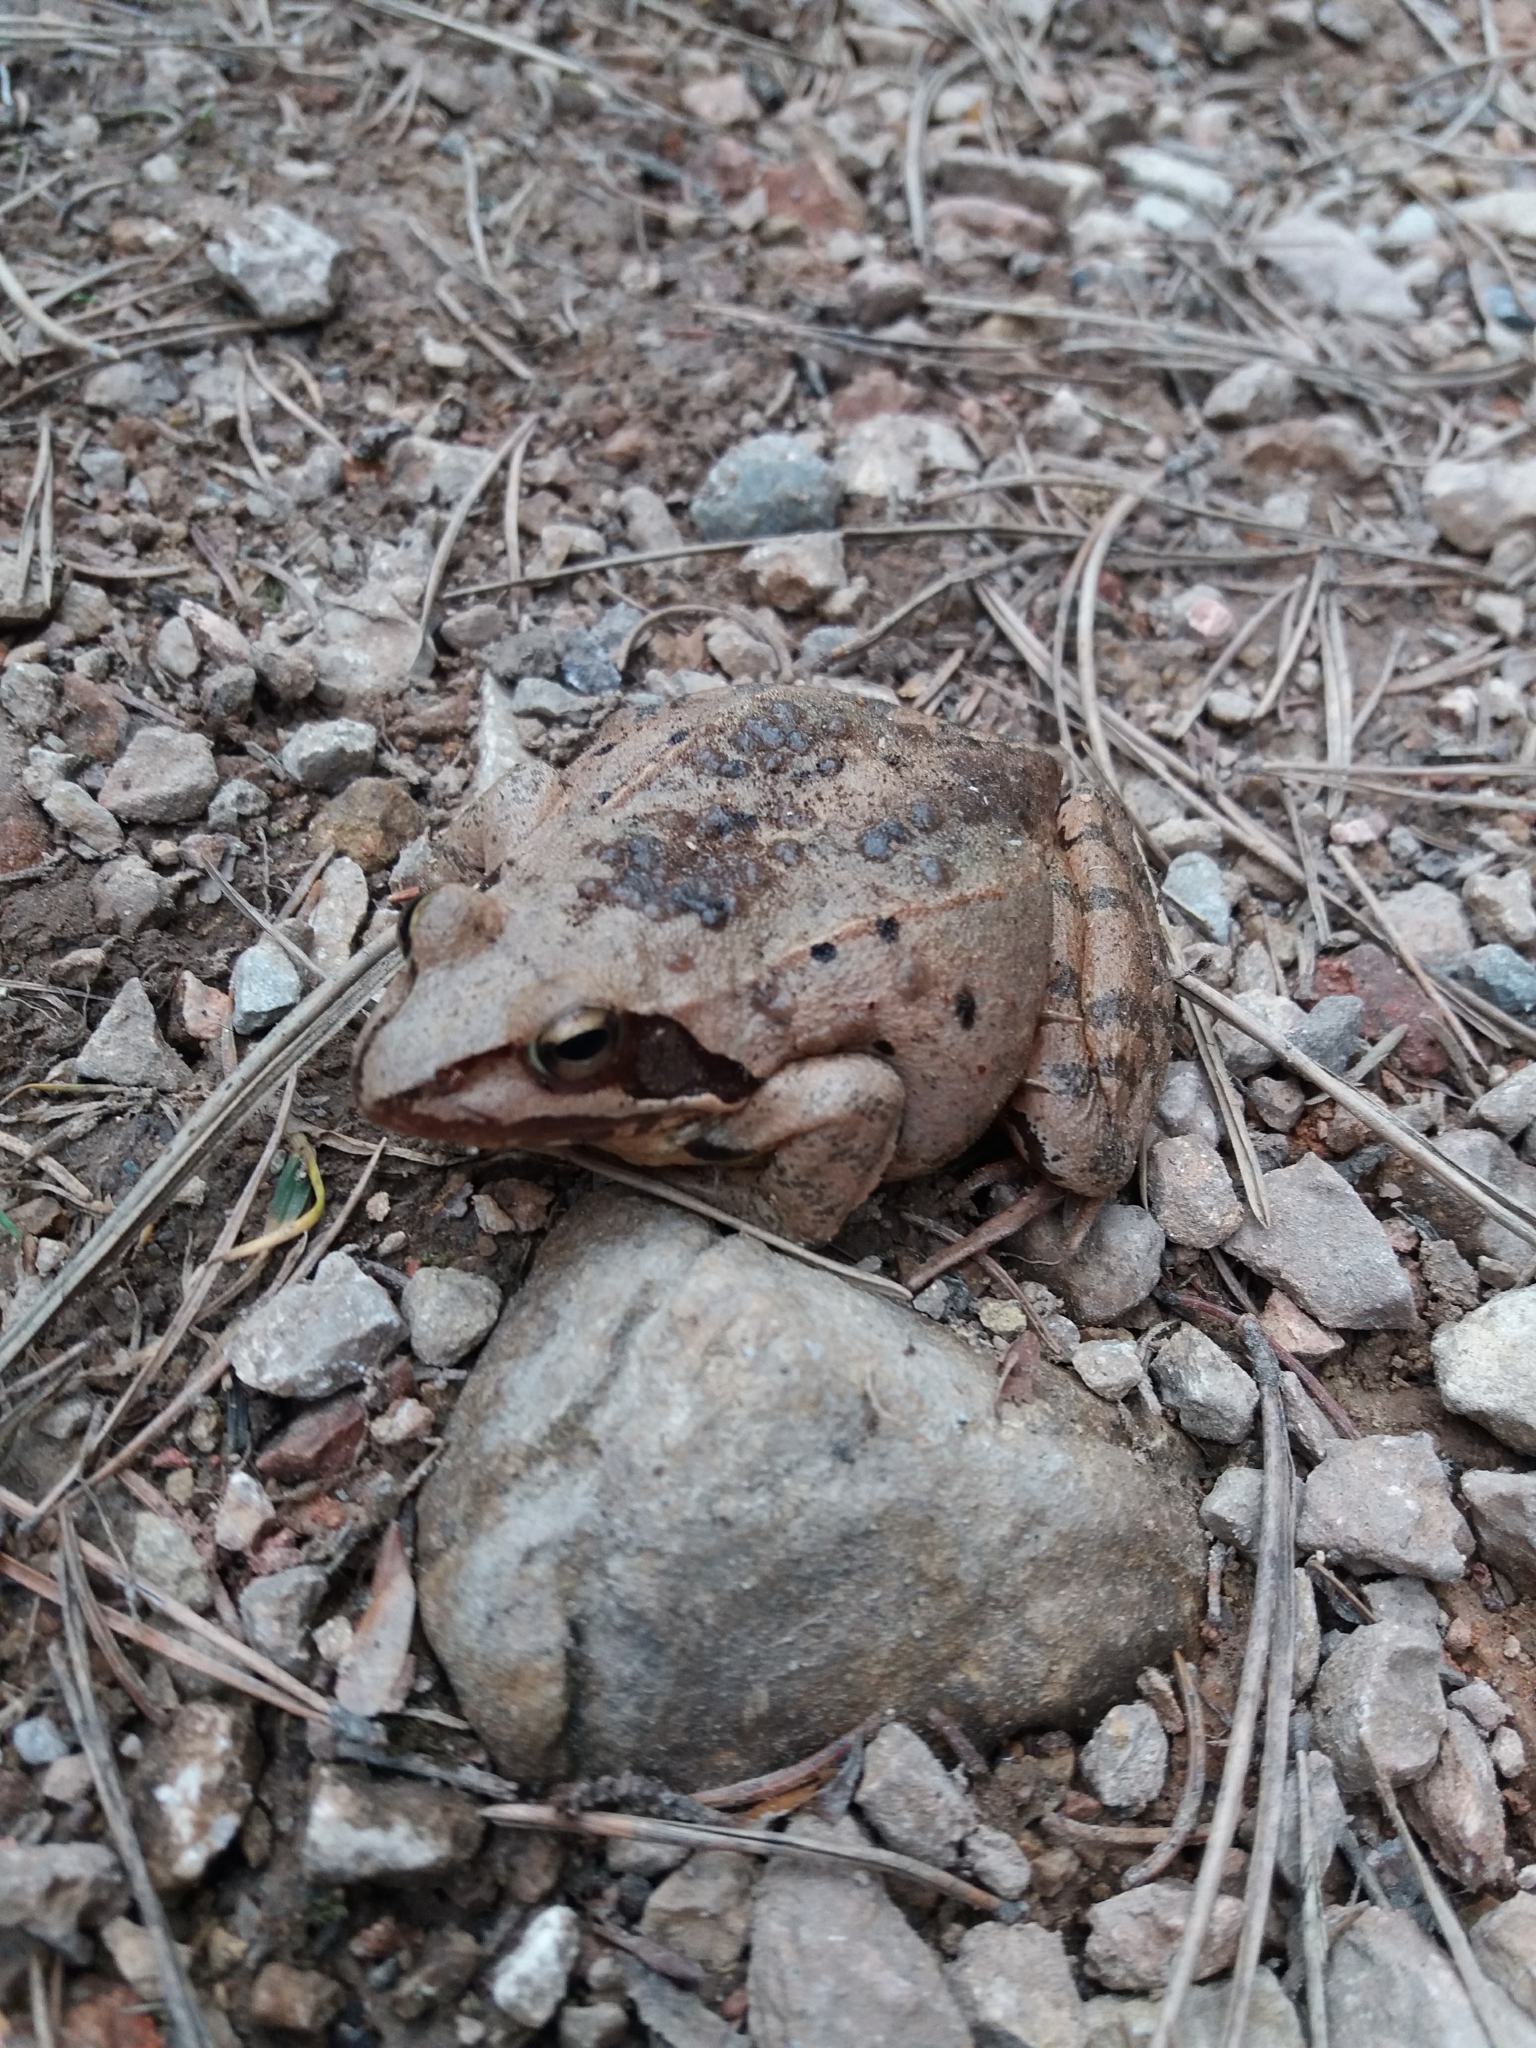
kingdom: Animalia
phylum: Chordata
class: Amphibia
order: Anura
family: Ranidae
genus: Rana
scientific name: Rana dalmatina
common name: Agile frog
